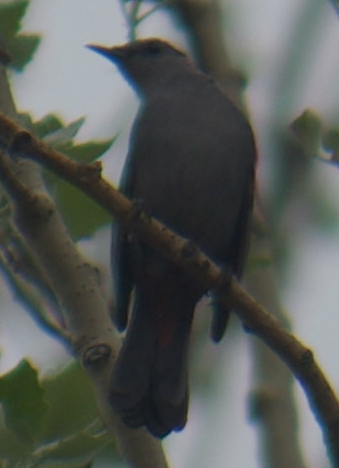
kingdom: Animalia
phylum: Chordata
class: Aves
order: Passeriformes
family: Mimidae
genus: Dumetella
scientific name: Dumetella carolinensis
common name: Gray catbird
